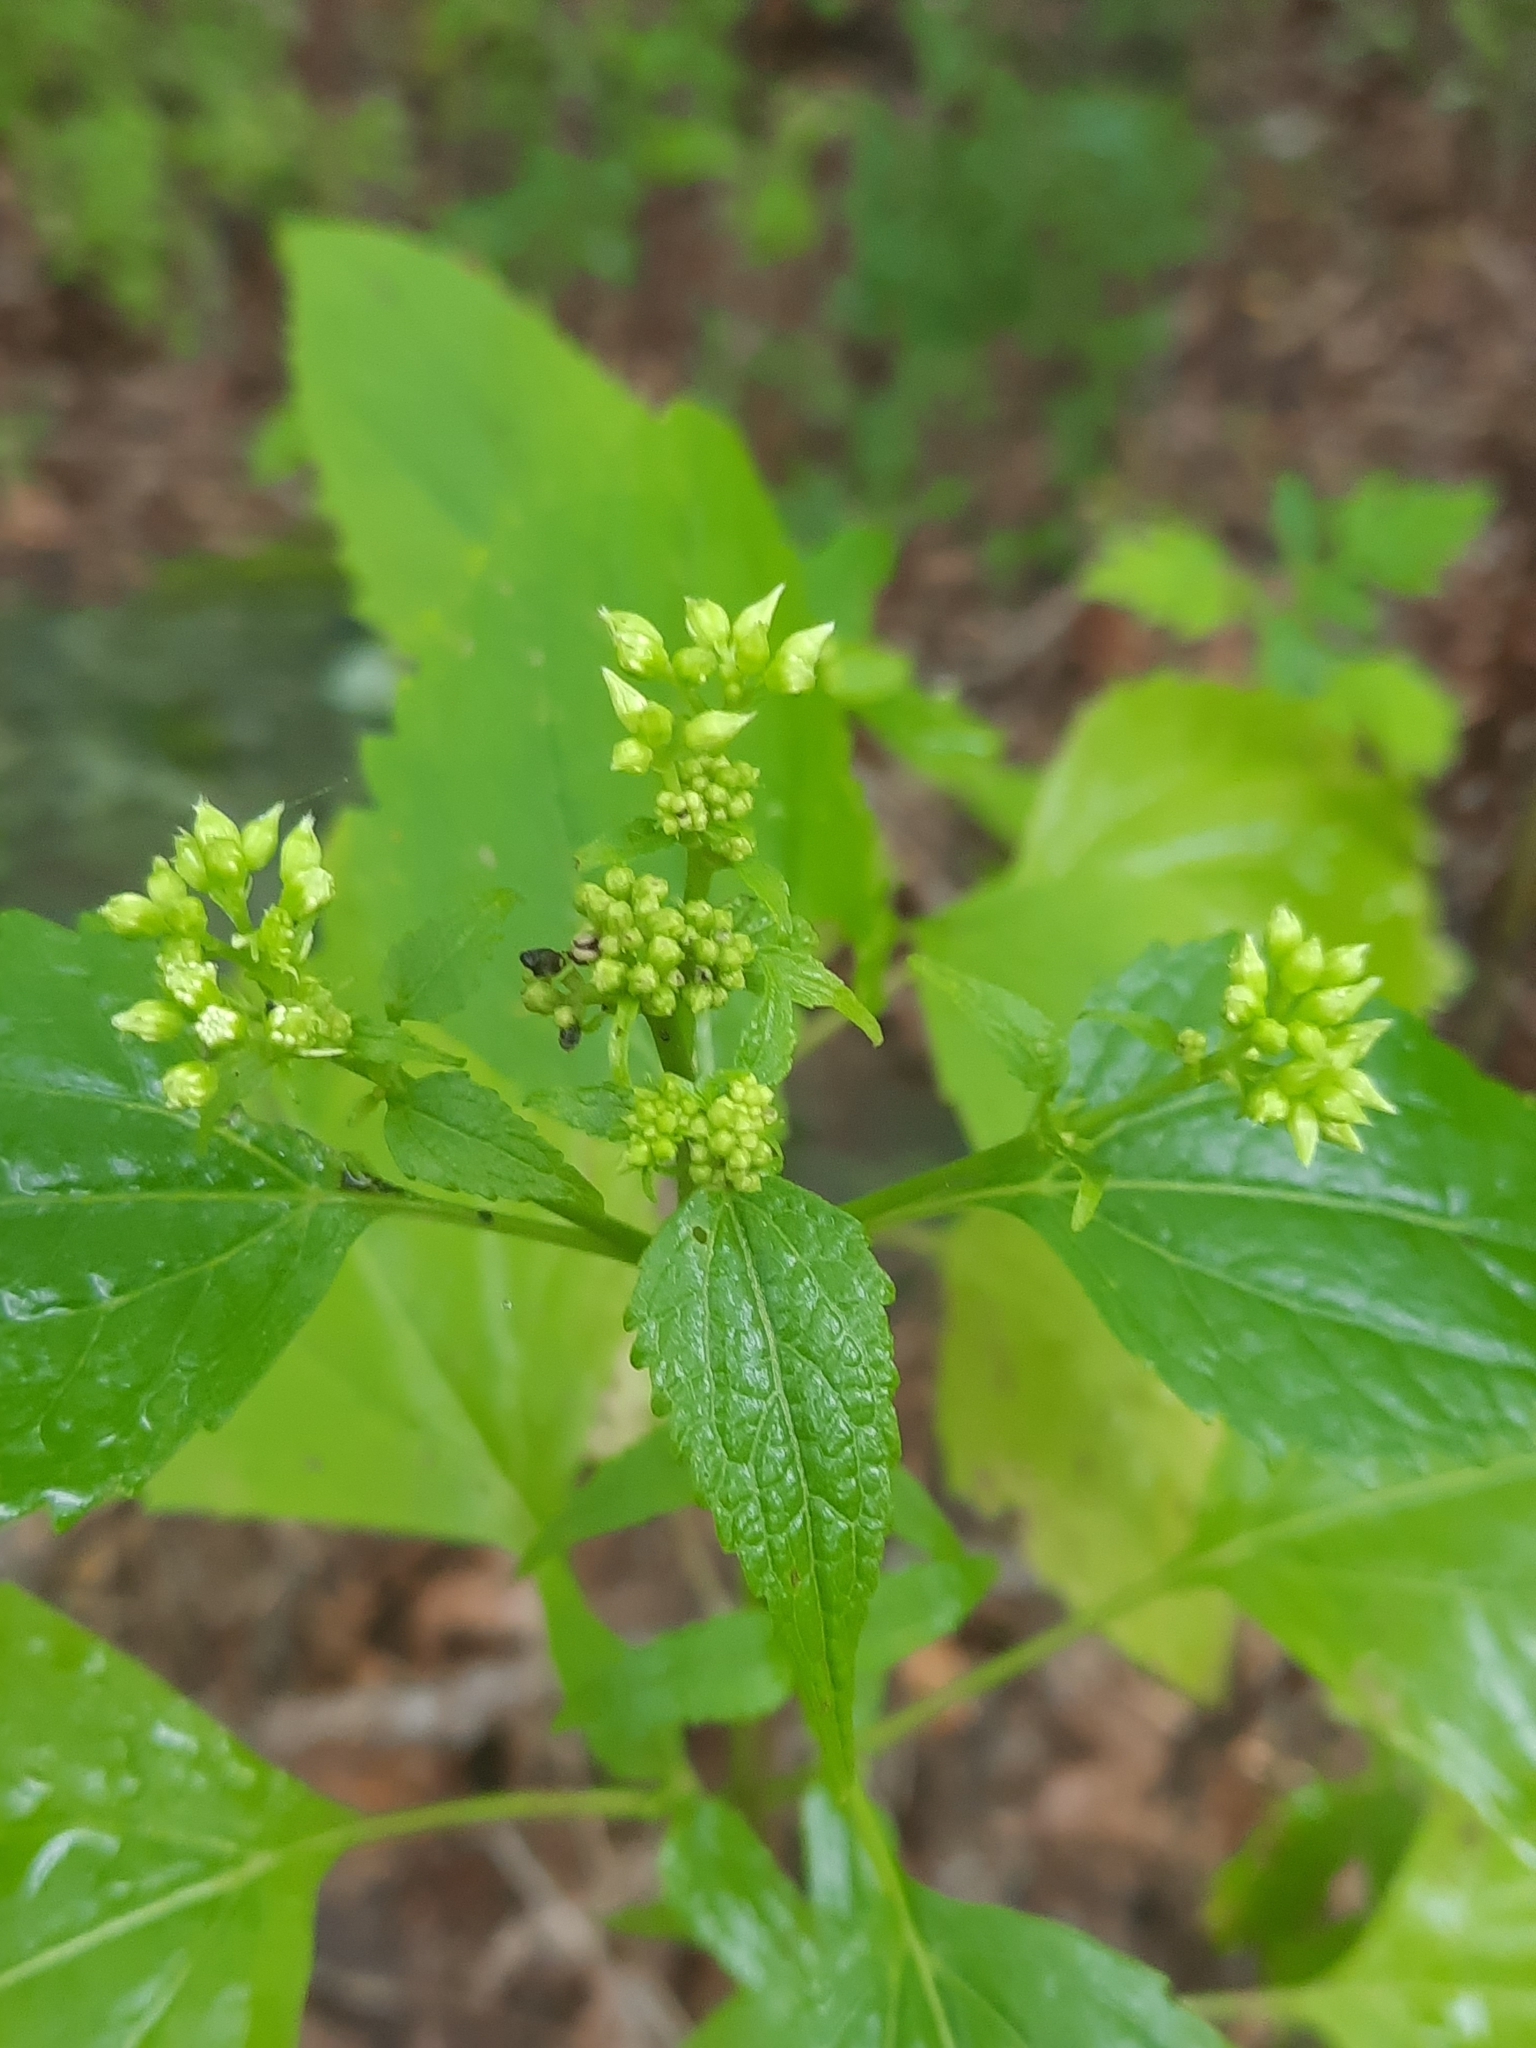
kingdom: Plantae
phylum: Tracheophyta
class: Magnoliopsida
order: Asterales
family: Asteraceae
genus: Ageratina
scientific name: Ageratina altissima
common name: White snakeroot
